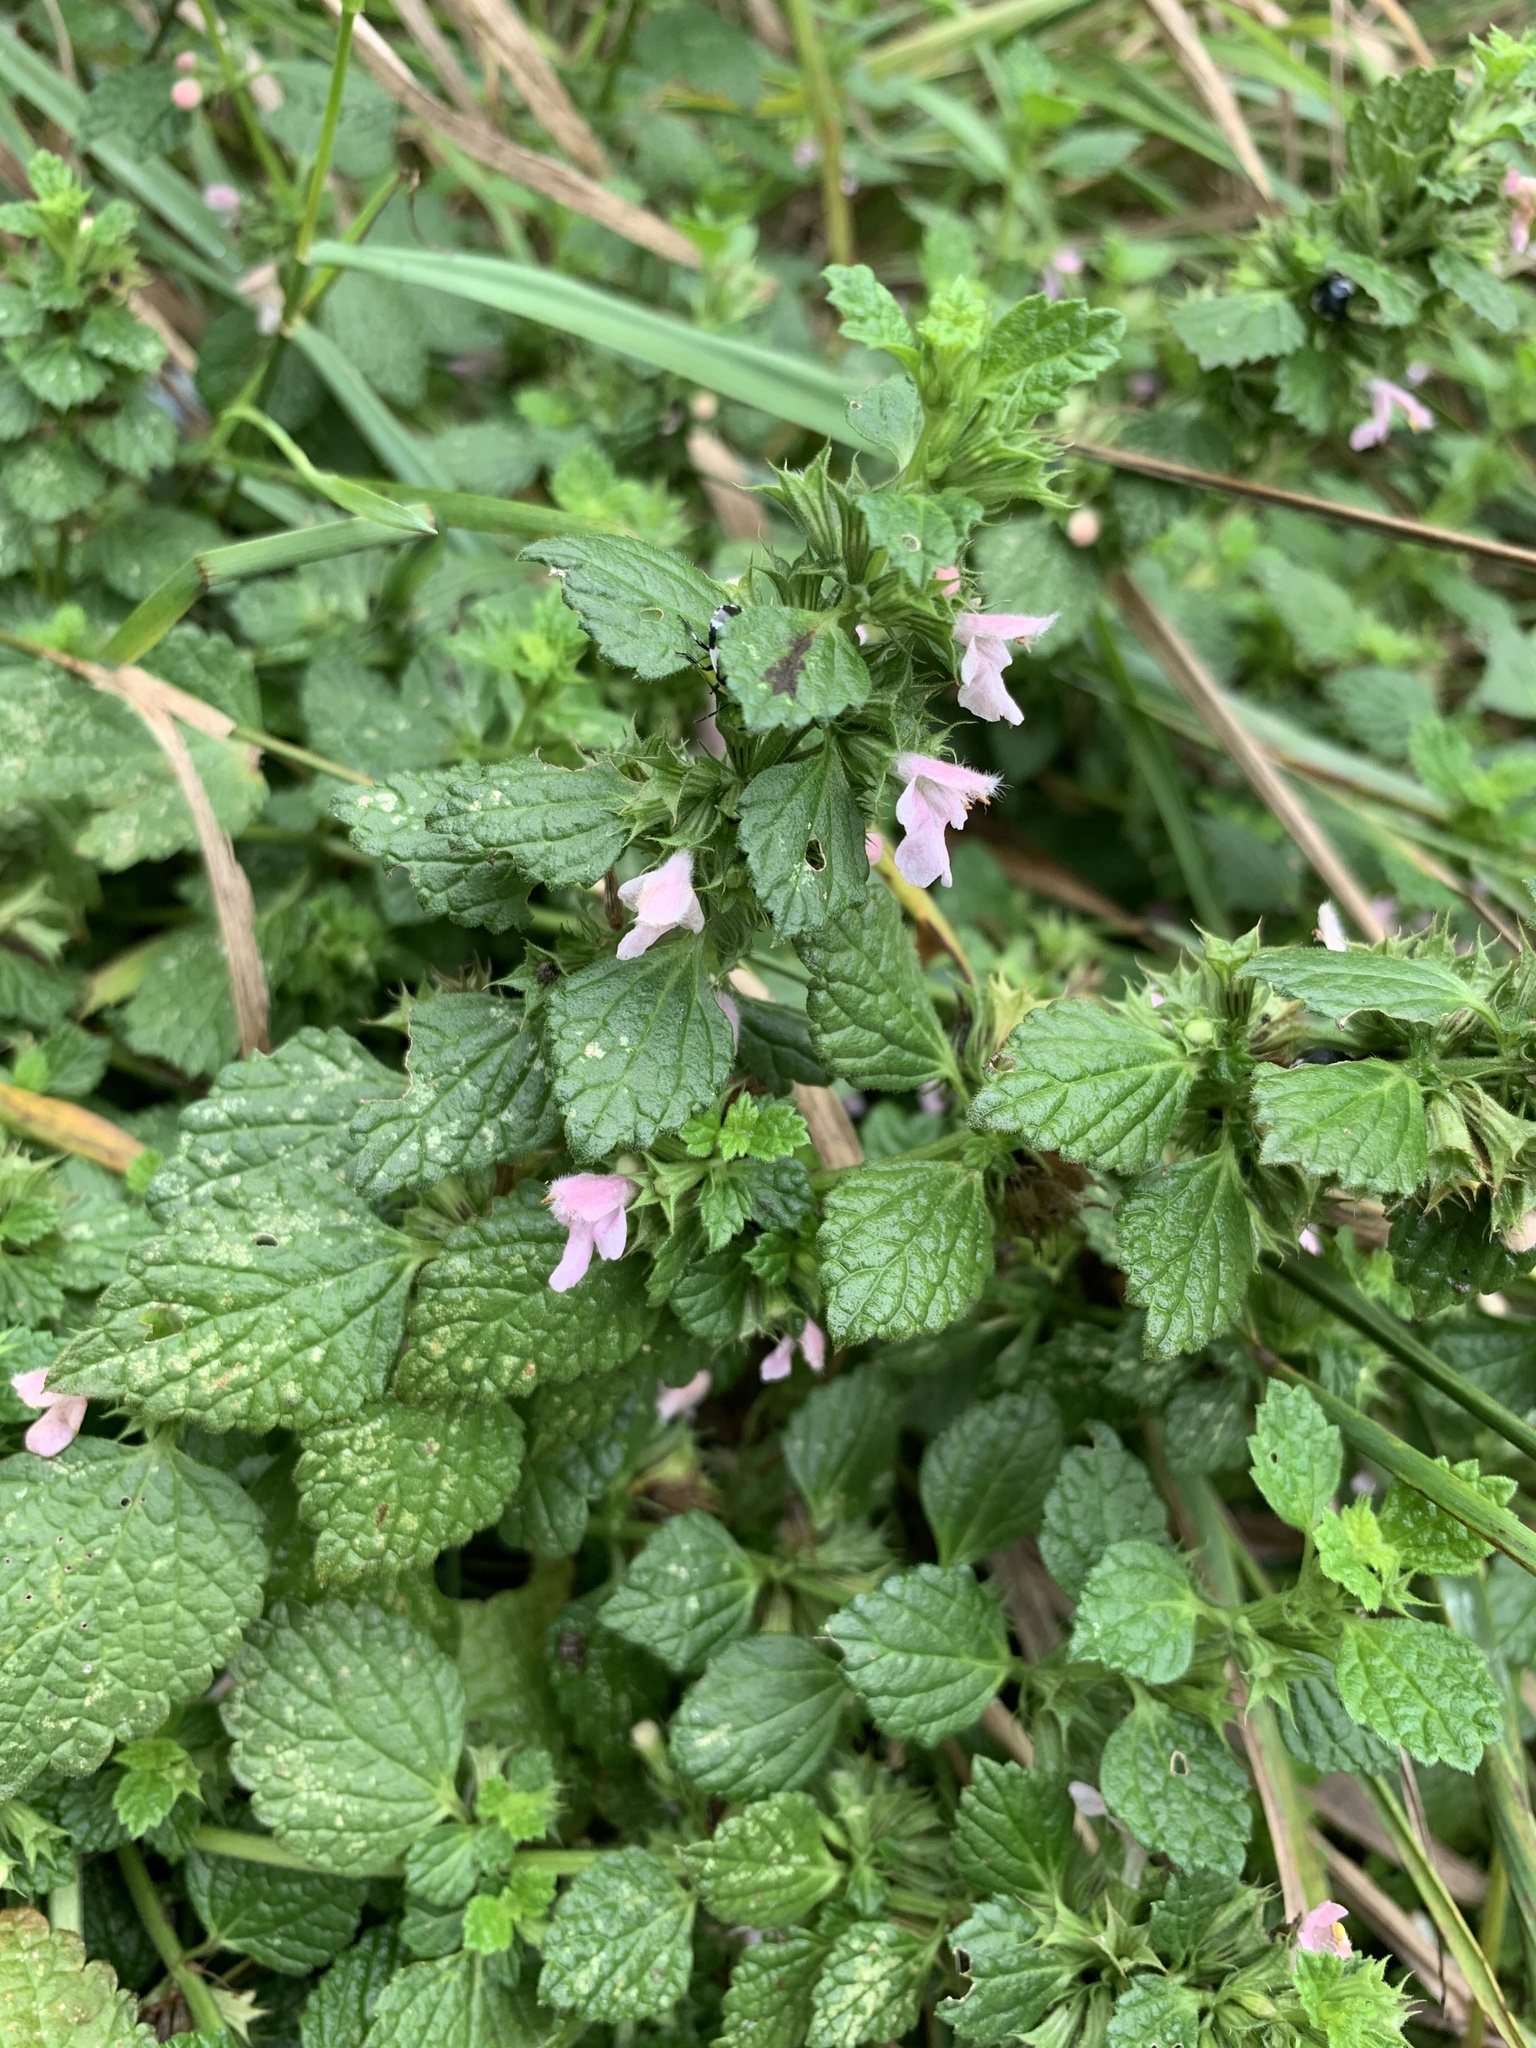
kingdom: Plantae
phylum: Tracheophyta
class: Magnoliopsida
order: Lamiales
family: Lamiaceae
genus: Ballota
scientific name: Ballota nigra
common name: Black horehound
